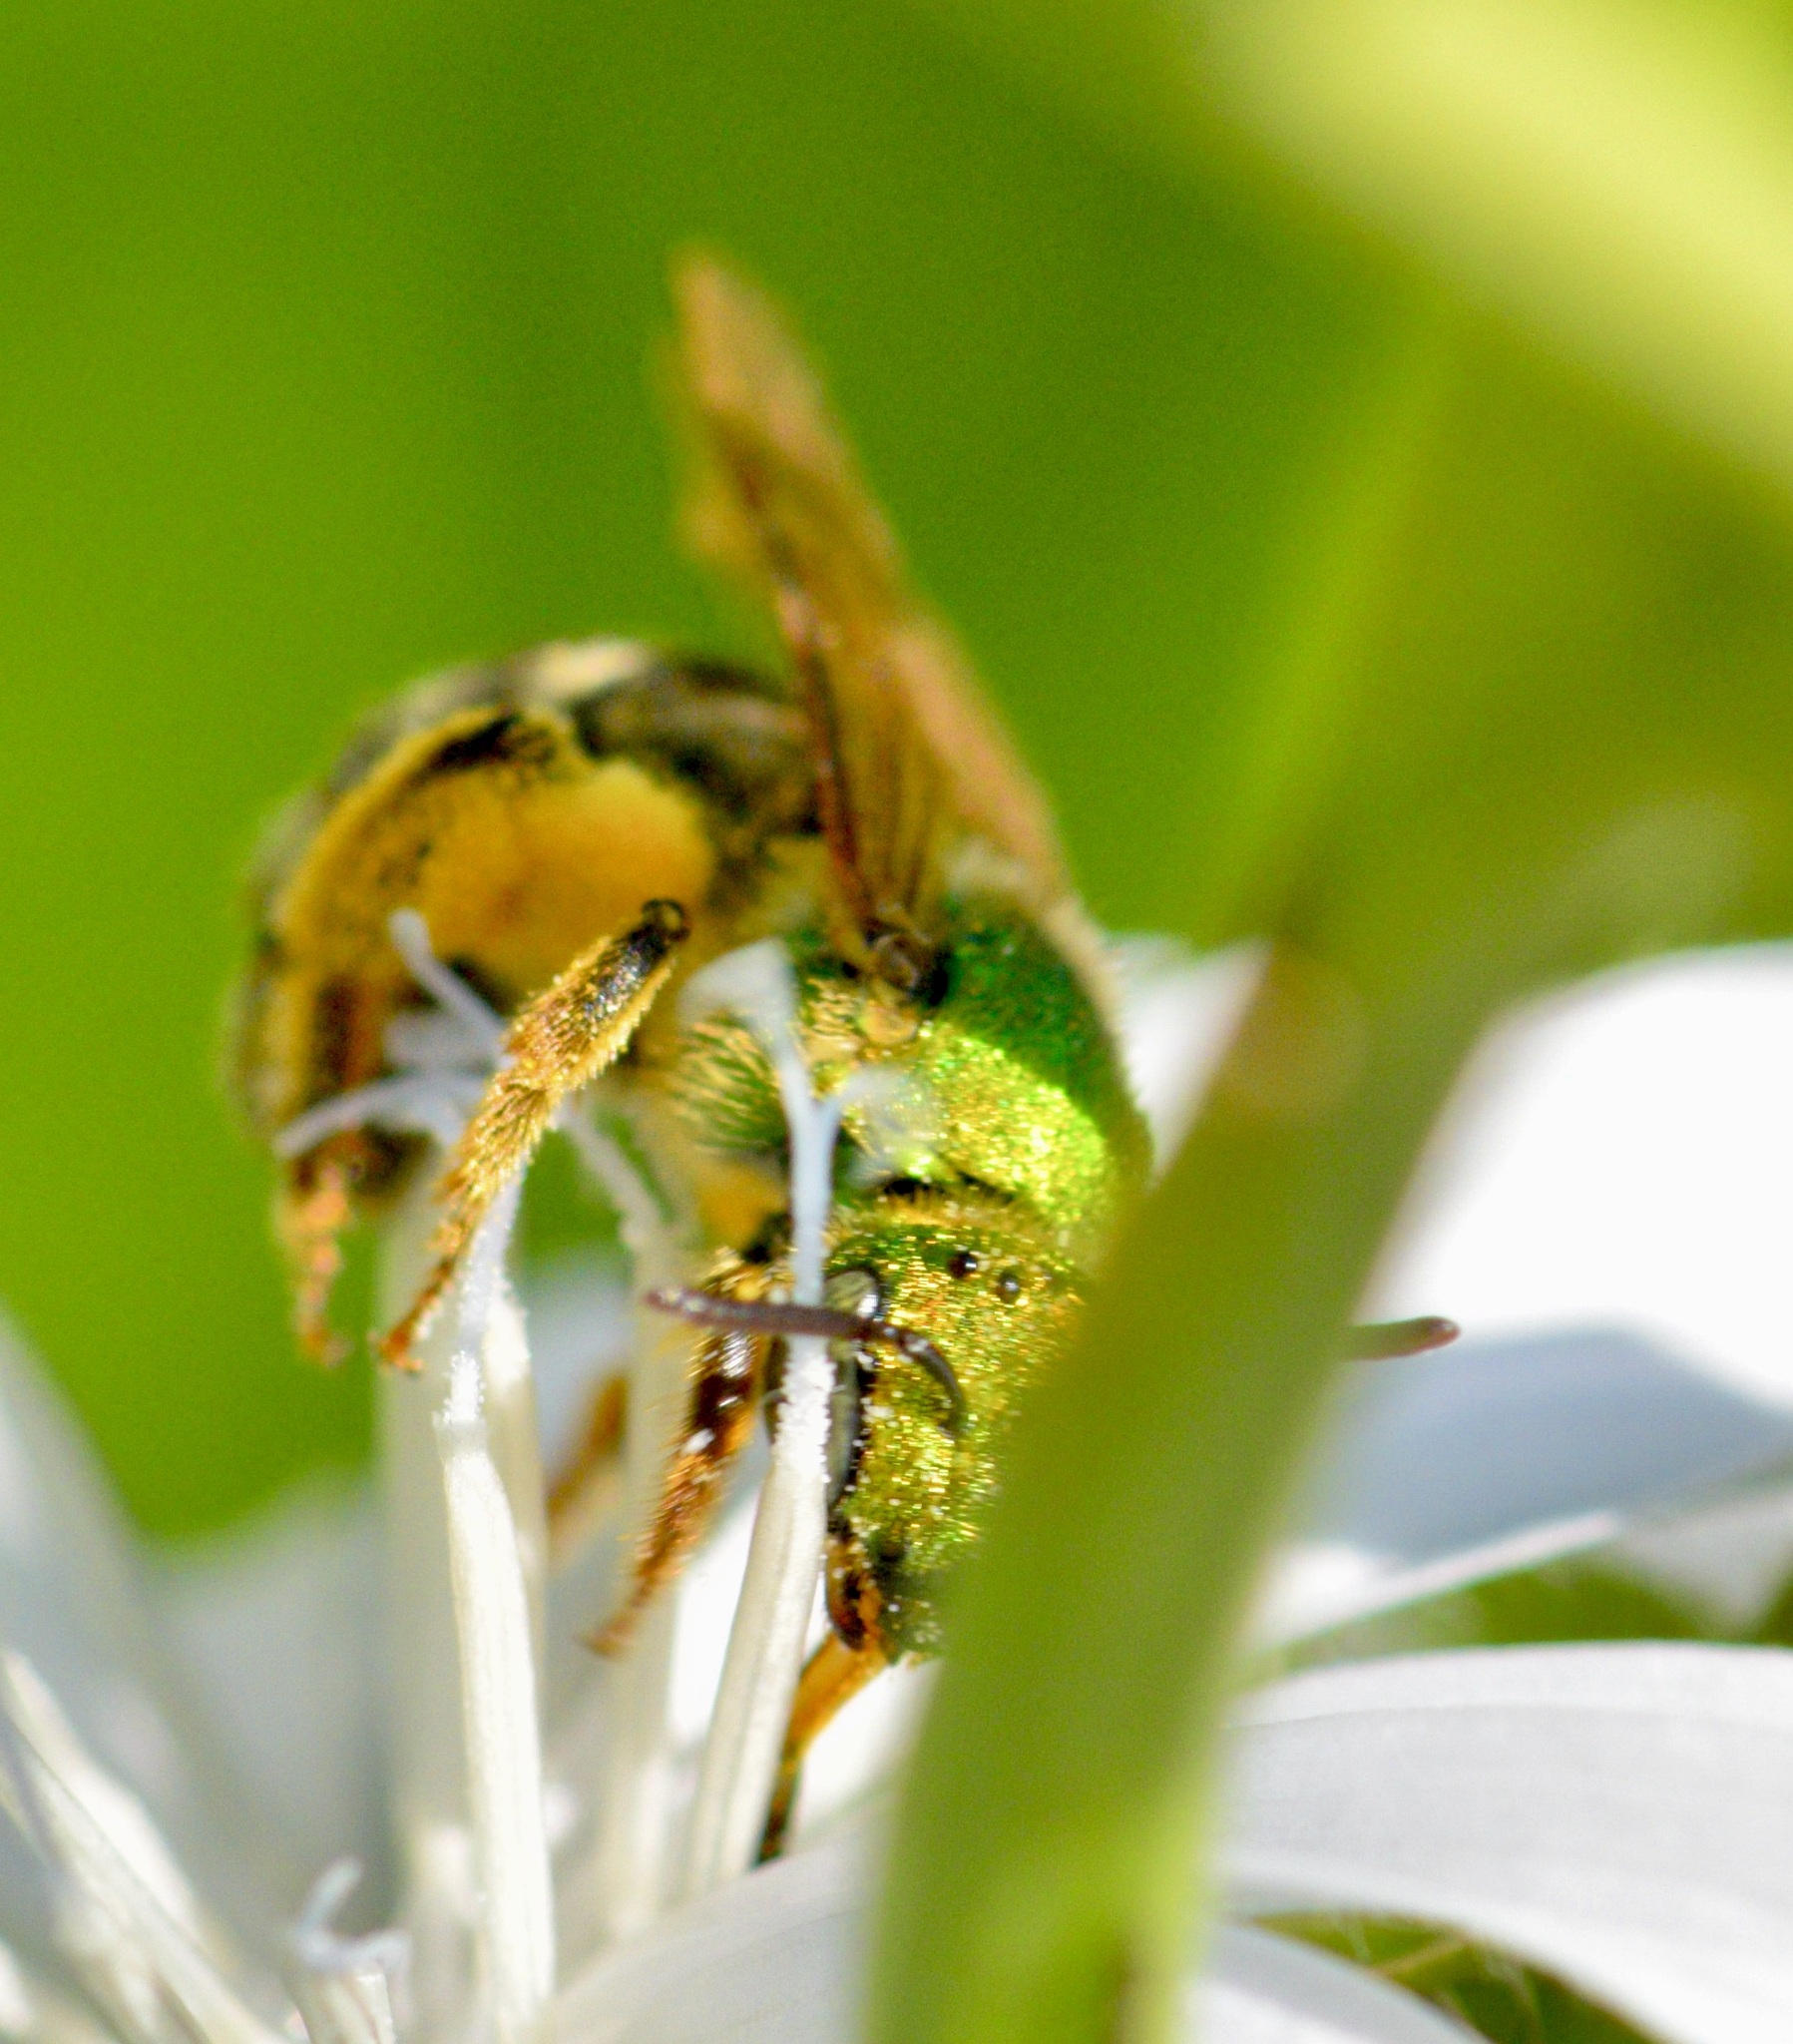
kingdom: Animalia
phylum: Arthropoda
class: Insecta
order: Hymenoptera
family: Halictidae
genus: Agapostemon
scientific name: Agapostemon virescens
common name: Bicolored striped sweat bee
